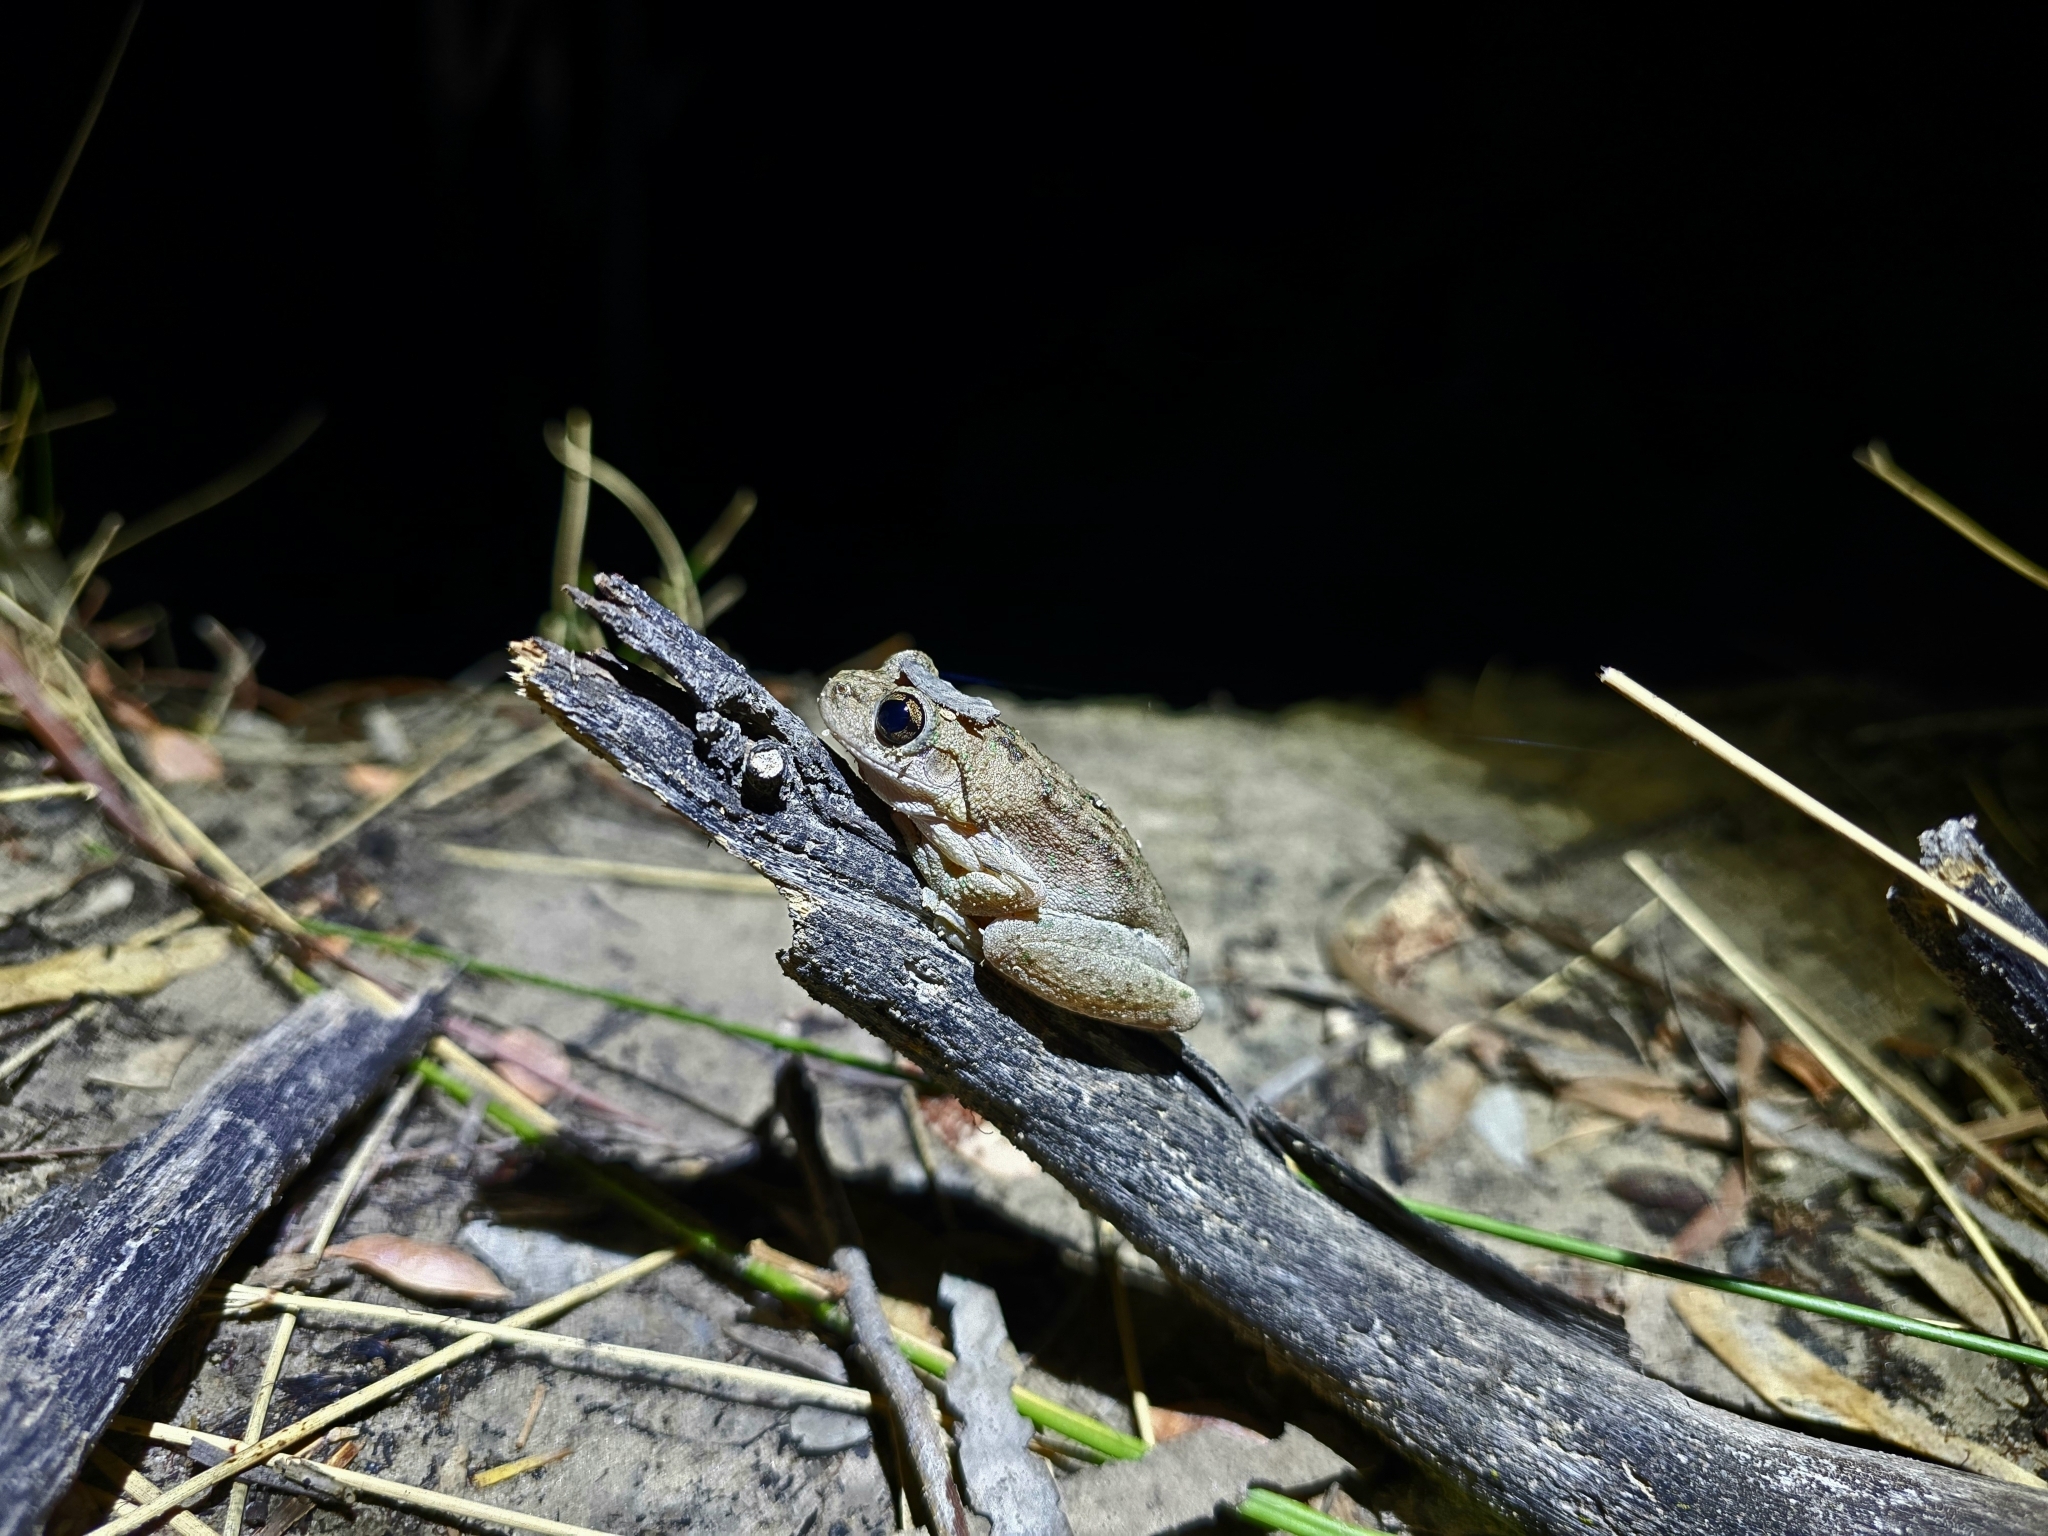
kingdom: Animalia
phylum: Chordata
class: Amphibia
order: Anura
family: Pelodryadidae
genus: Litoria
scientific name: Litoria peronii
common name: Emerald spotted treefrog
